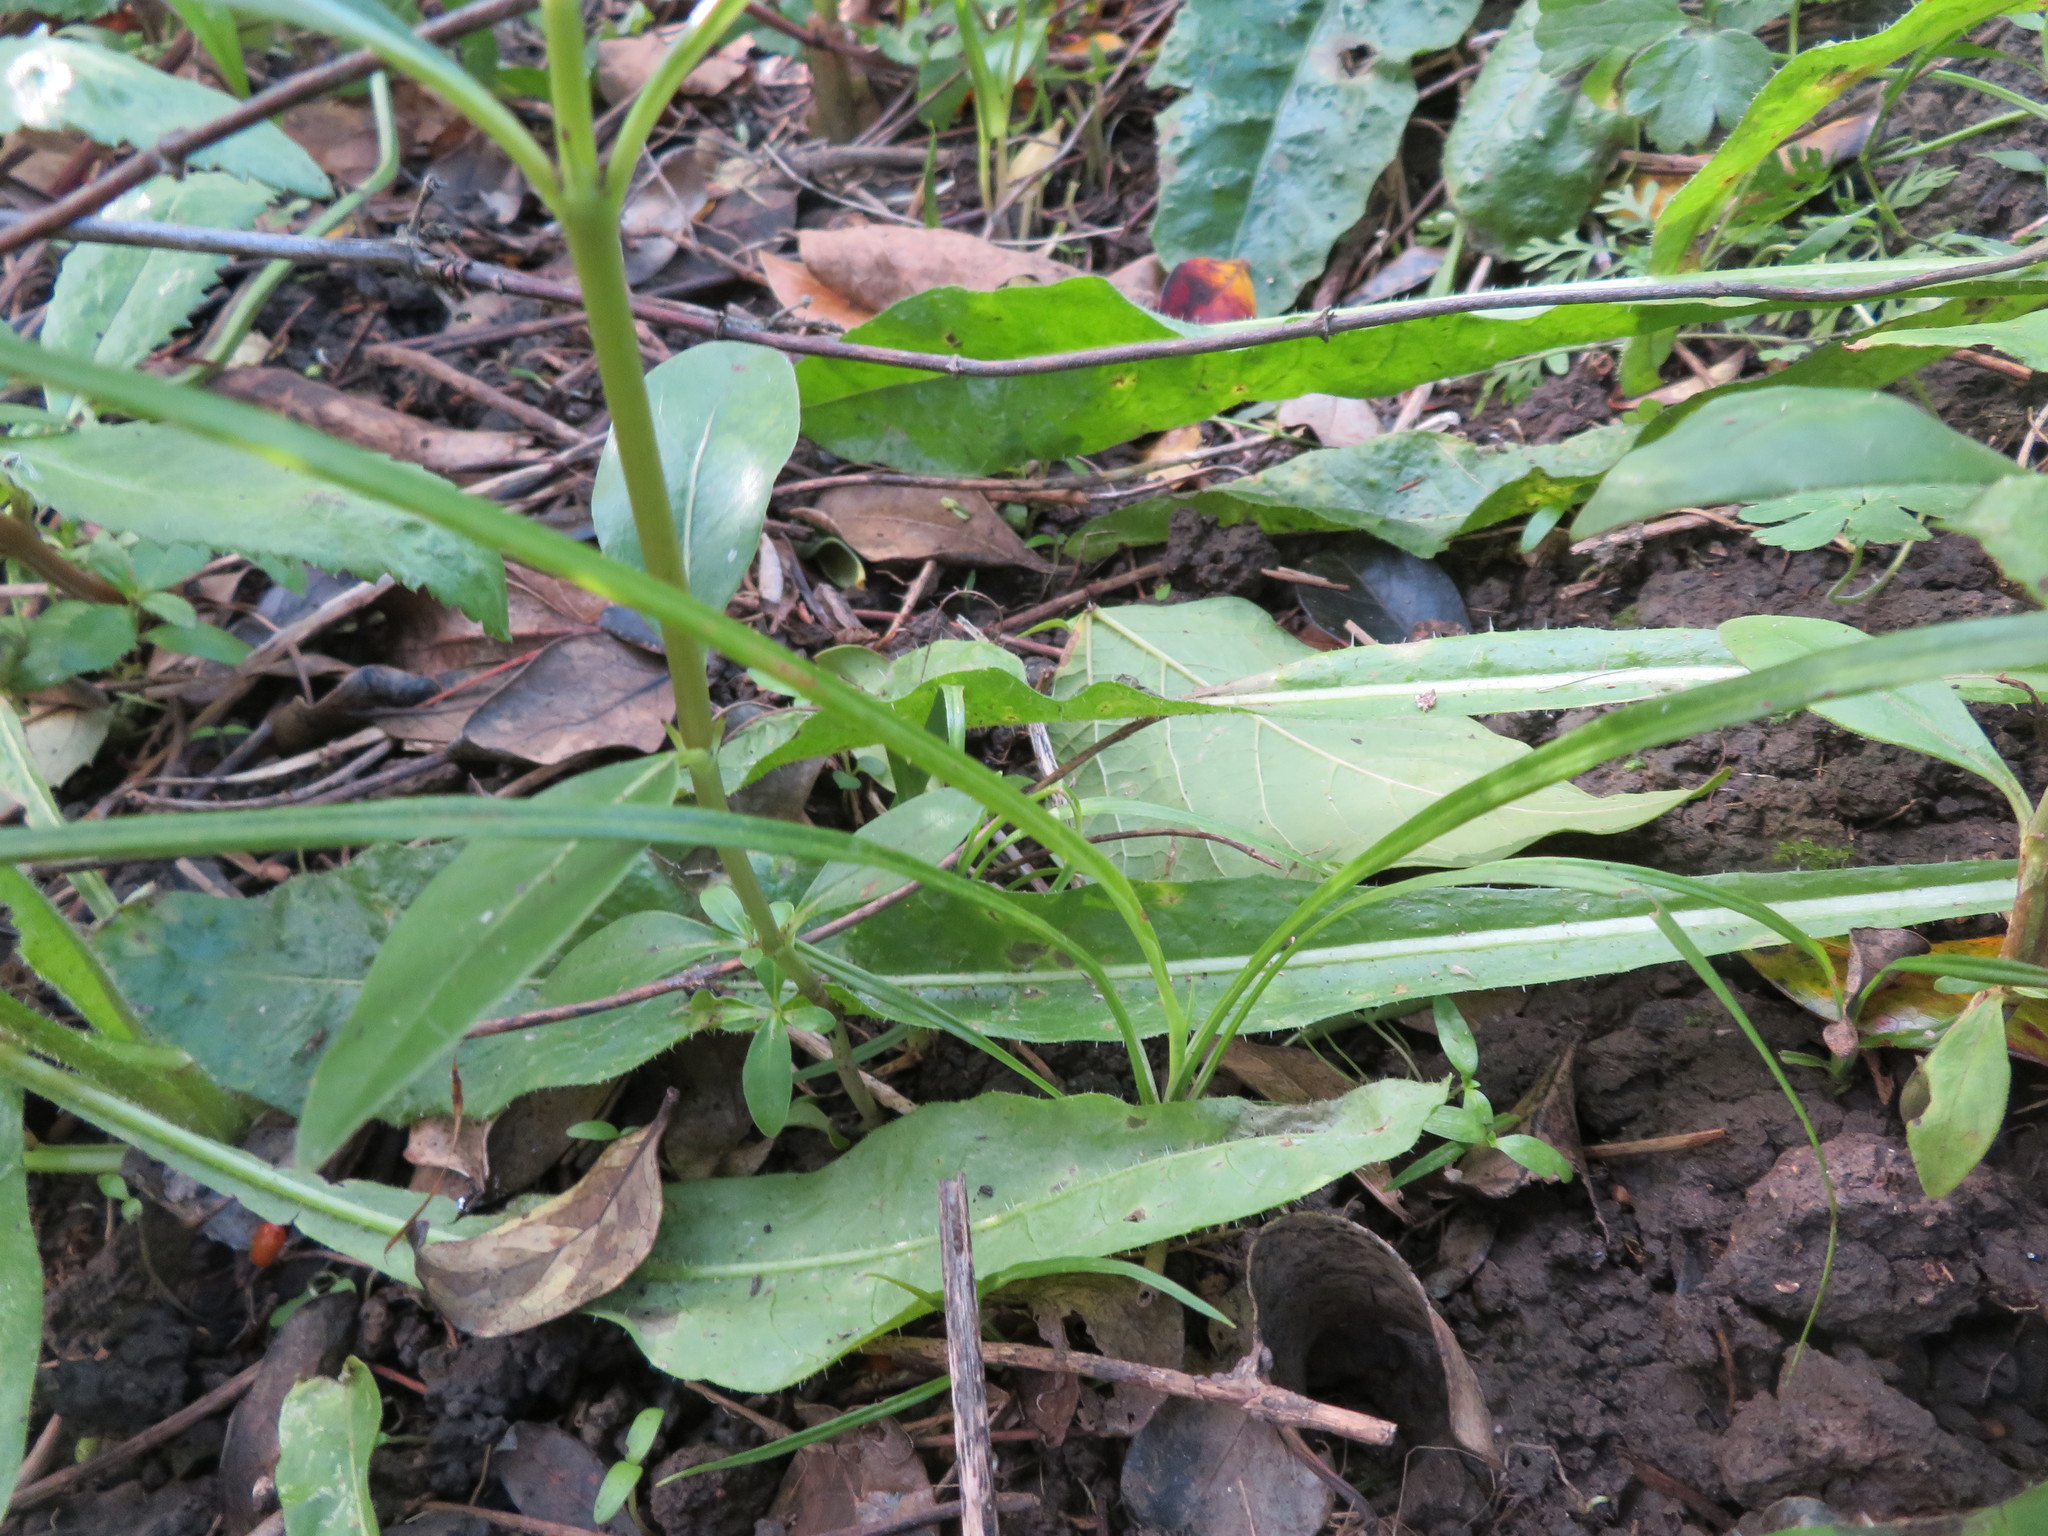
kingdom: Plantae
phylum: Tracheophyta
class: Liliopsida
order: Asparagales
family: Asparagaceae
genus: Cordyline
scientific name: Cordyline australis
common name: Cabbage-palm
